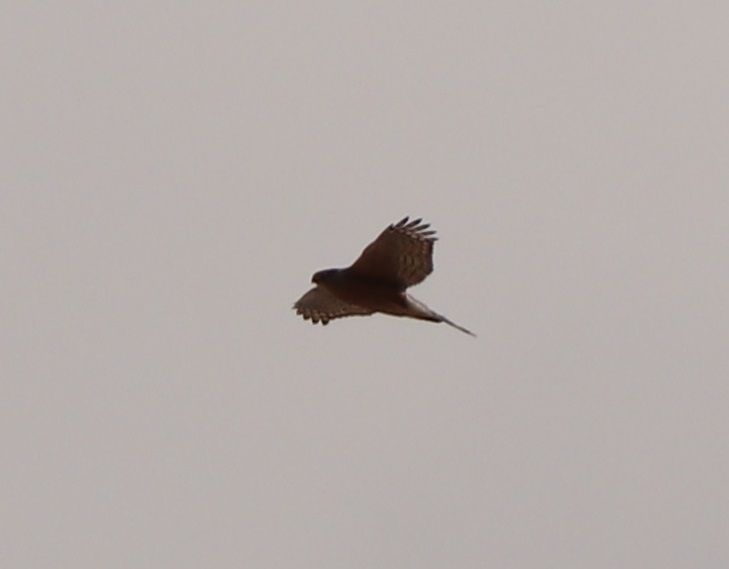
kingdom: Animalia
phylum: Chordata
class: Aves
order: Accipitriformes
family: Accipitridae
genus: Accipiter
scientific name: Accipiter cooperii
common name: Cooper's hawk
